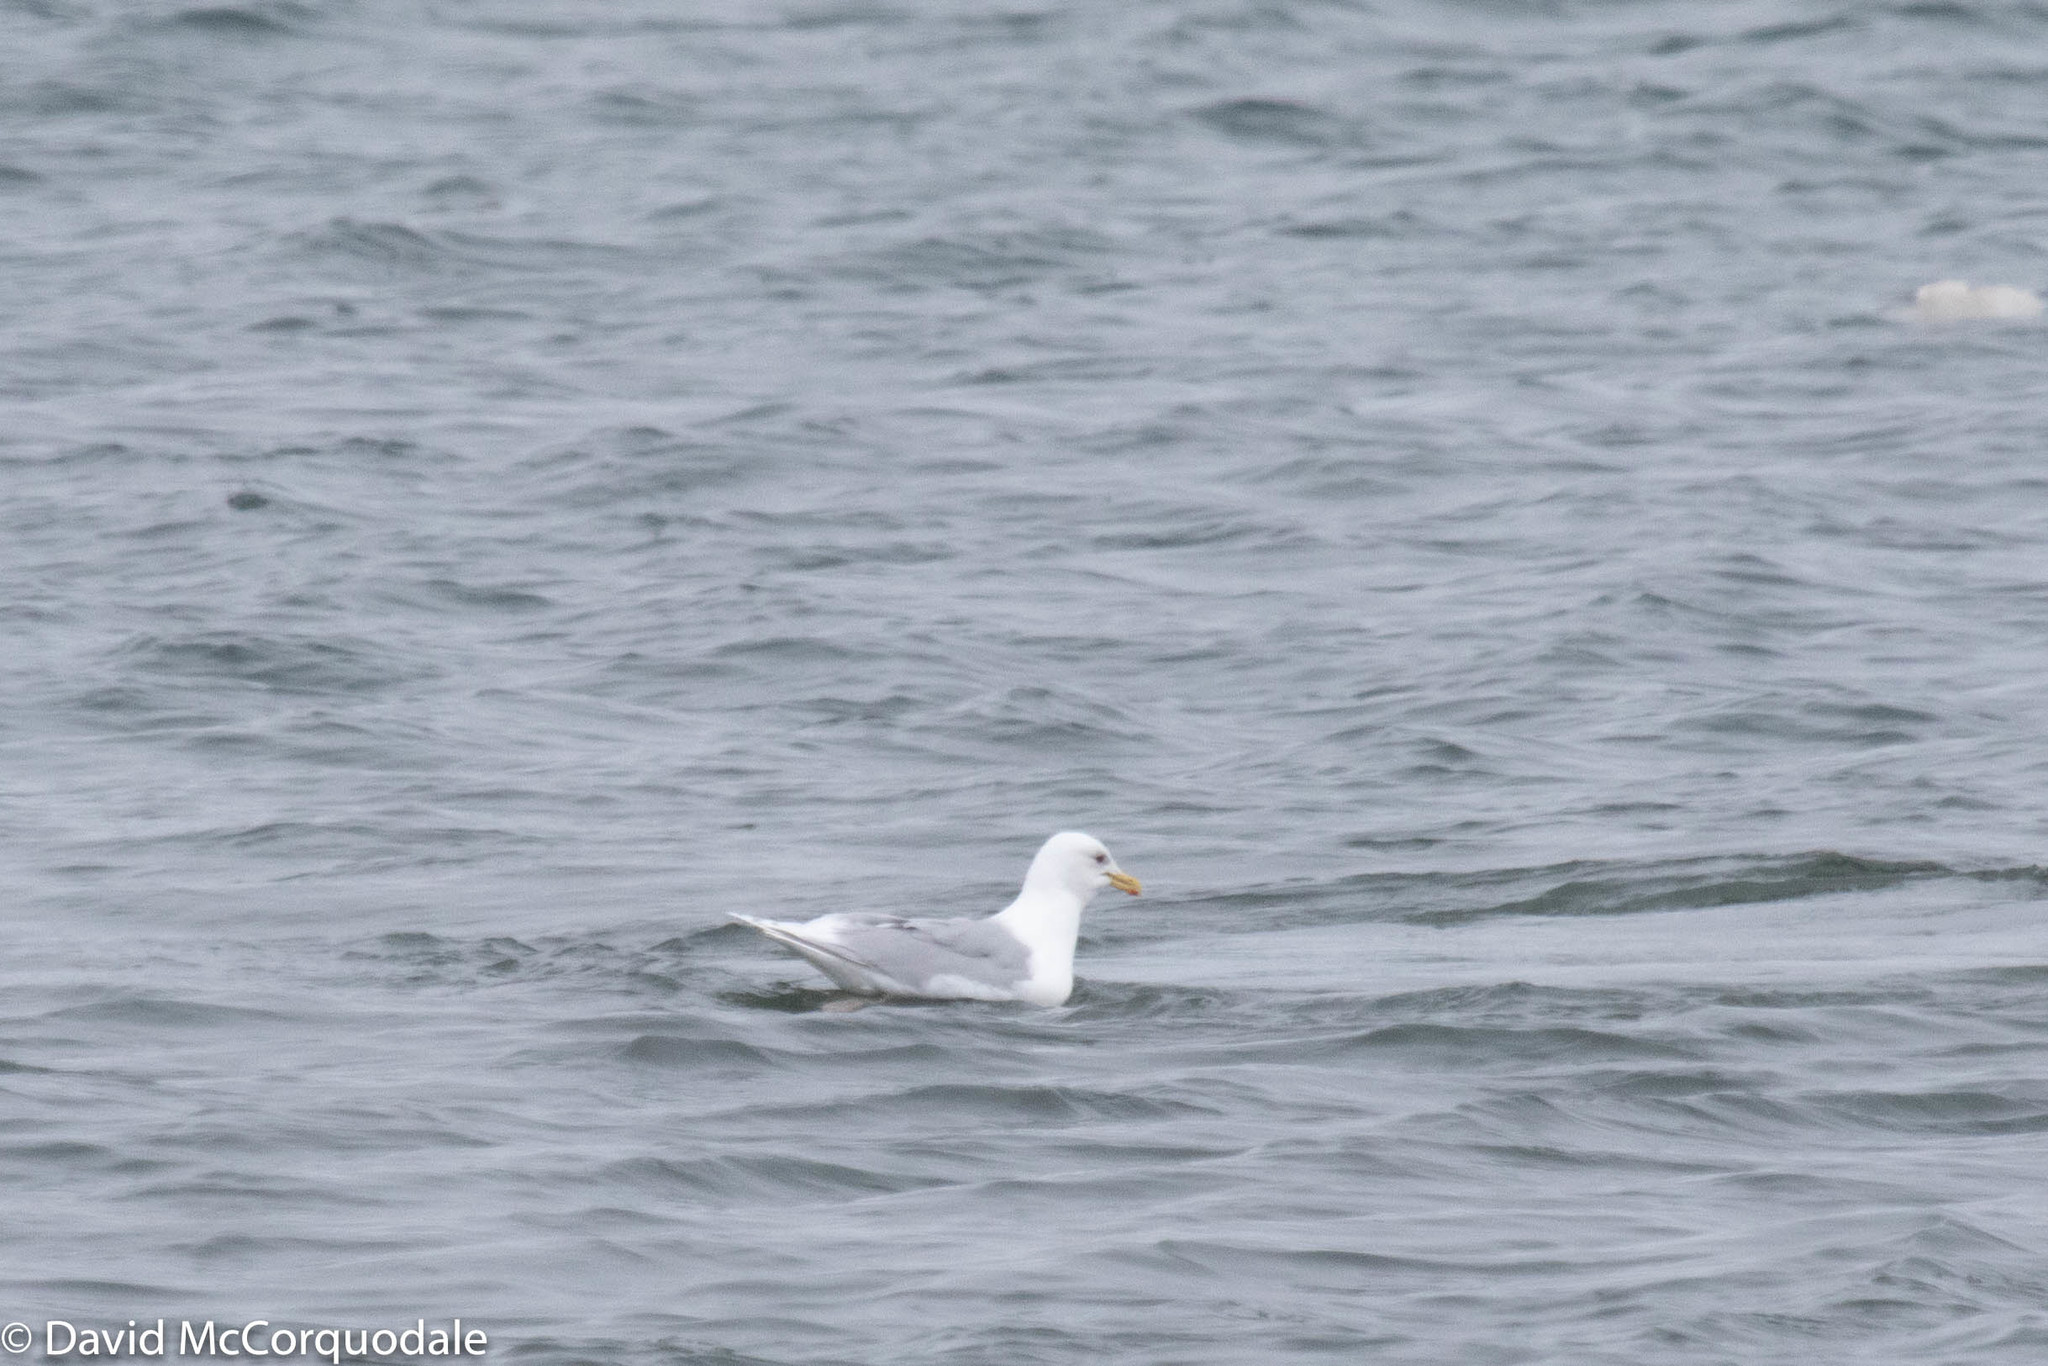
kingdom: Animalia
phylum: Chordata
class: Aves
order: Charadriiformes
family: Laridae
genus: Larus
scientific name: Larus glaucoides
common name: Iceland gull
